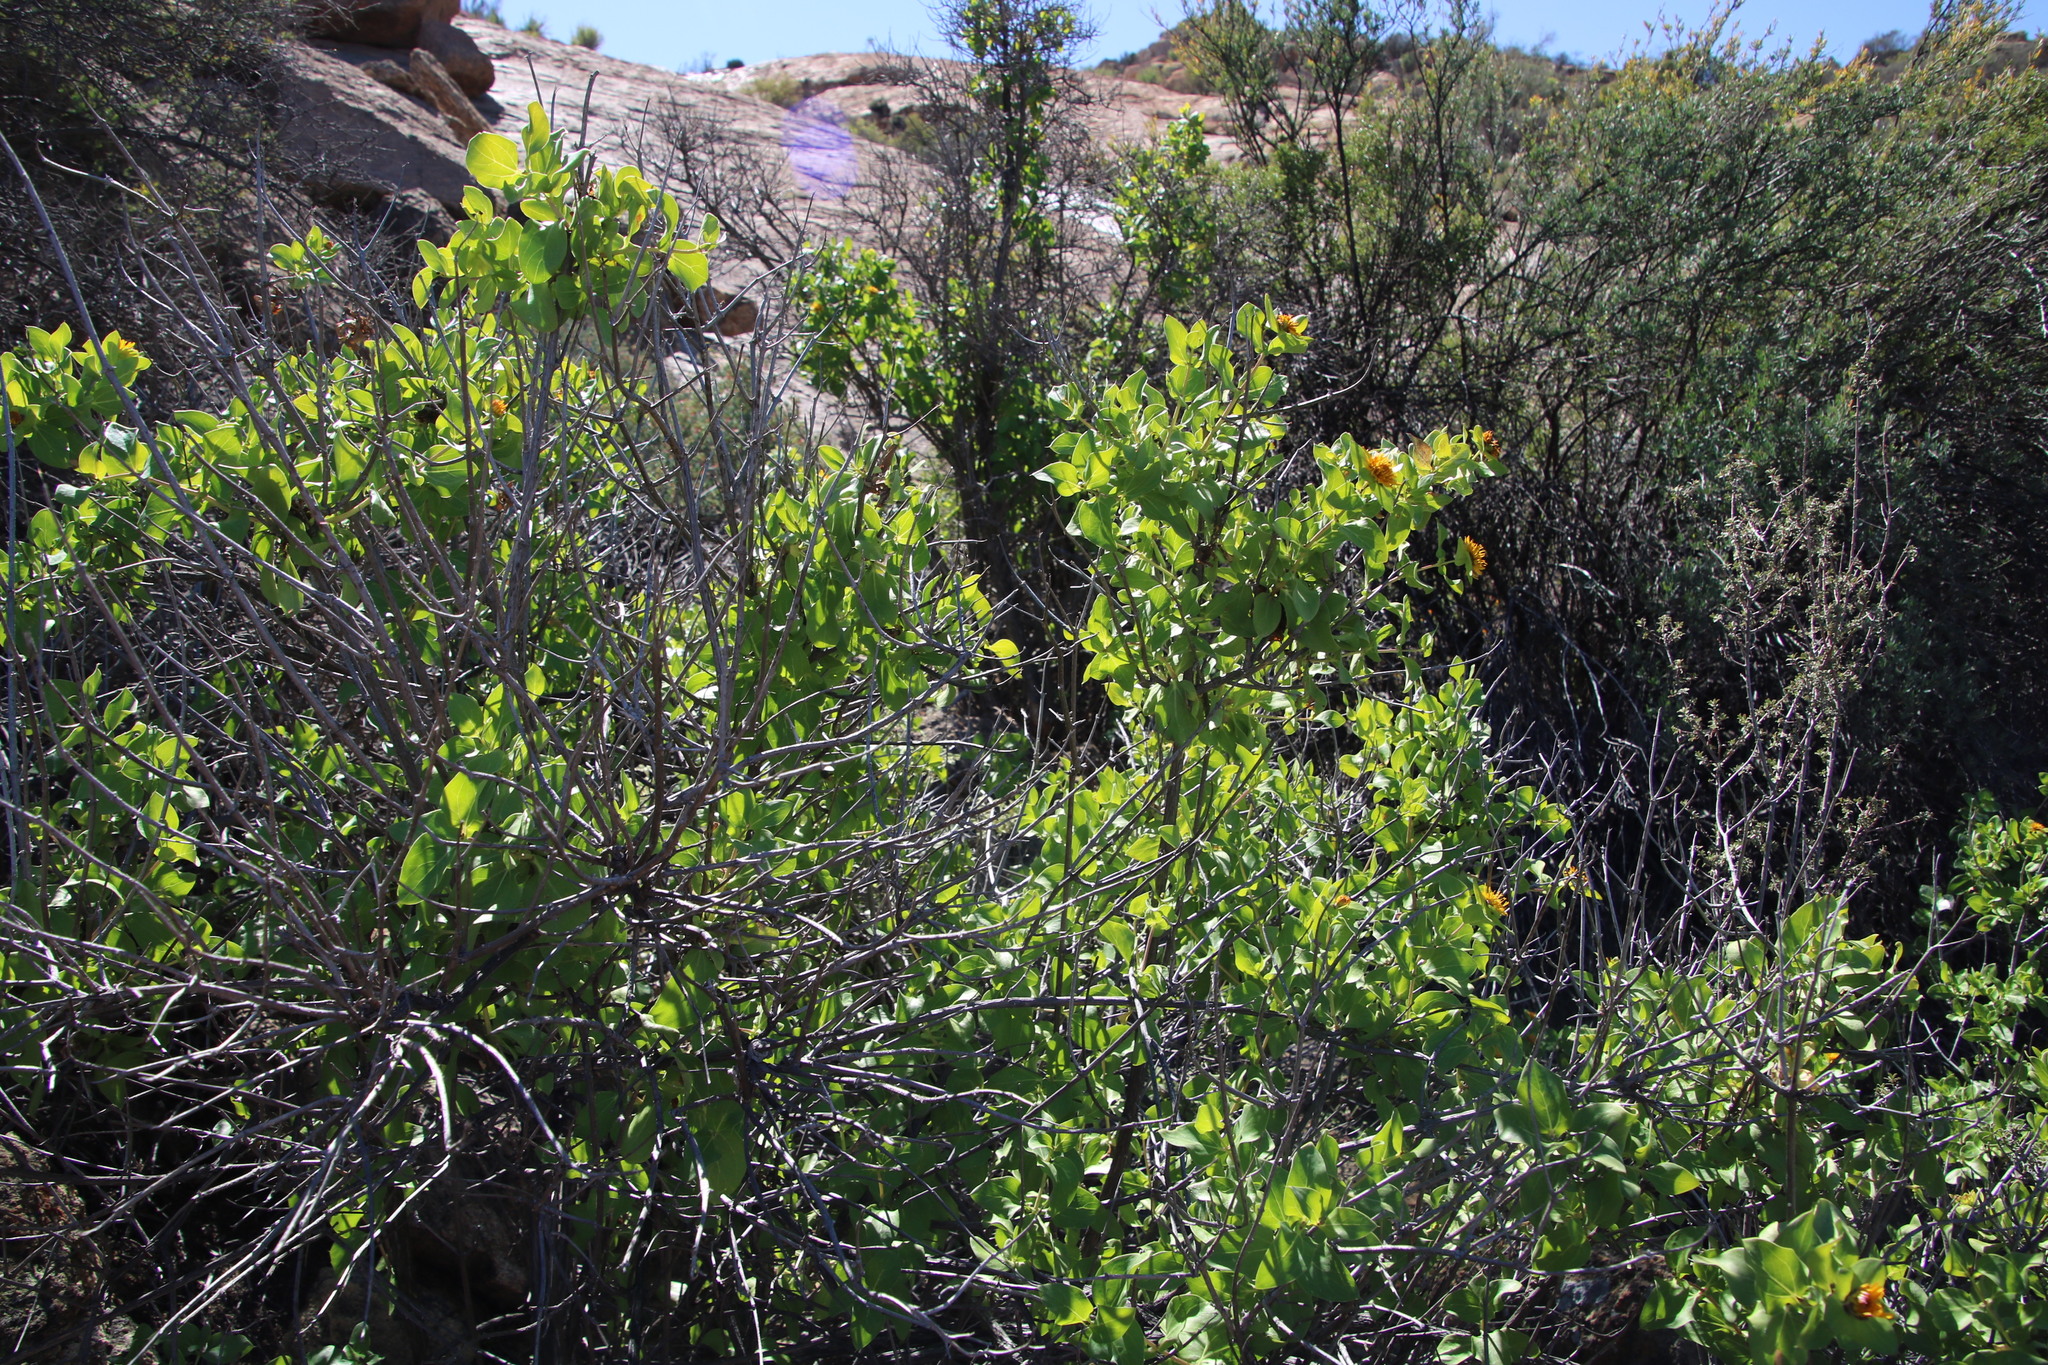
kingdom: Plantae
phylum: Tracheophyta
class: Magnoliopsida
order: Asterales
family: Asteraceae
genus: Didelta
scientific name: Didelta spinosa
